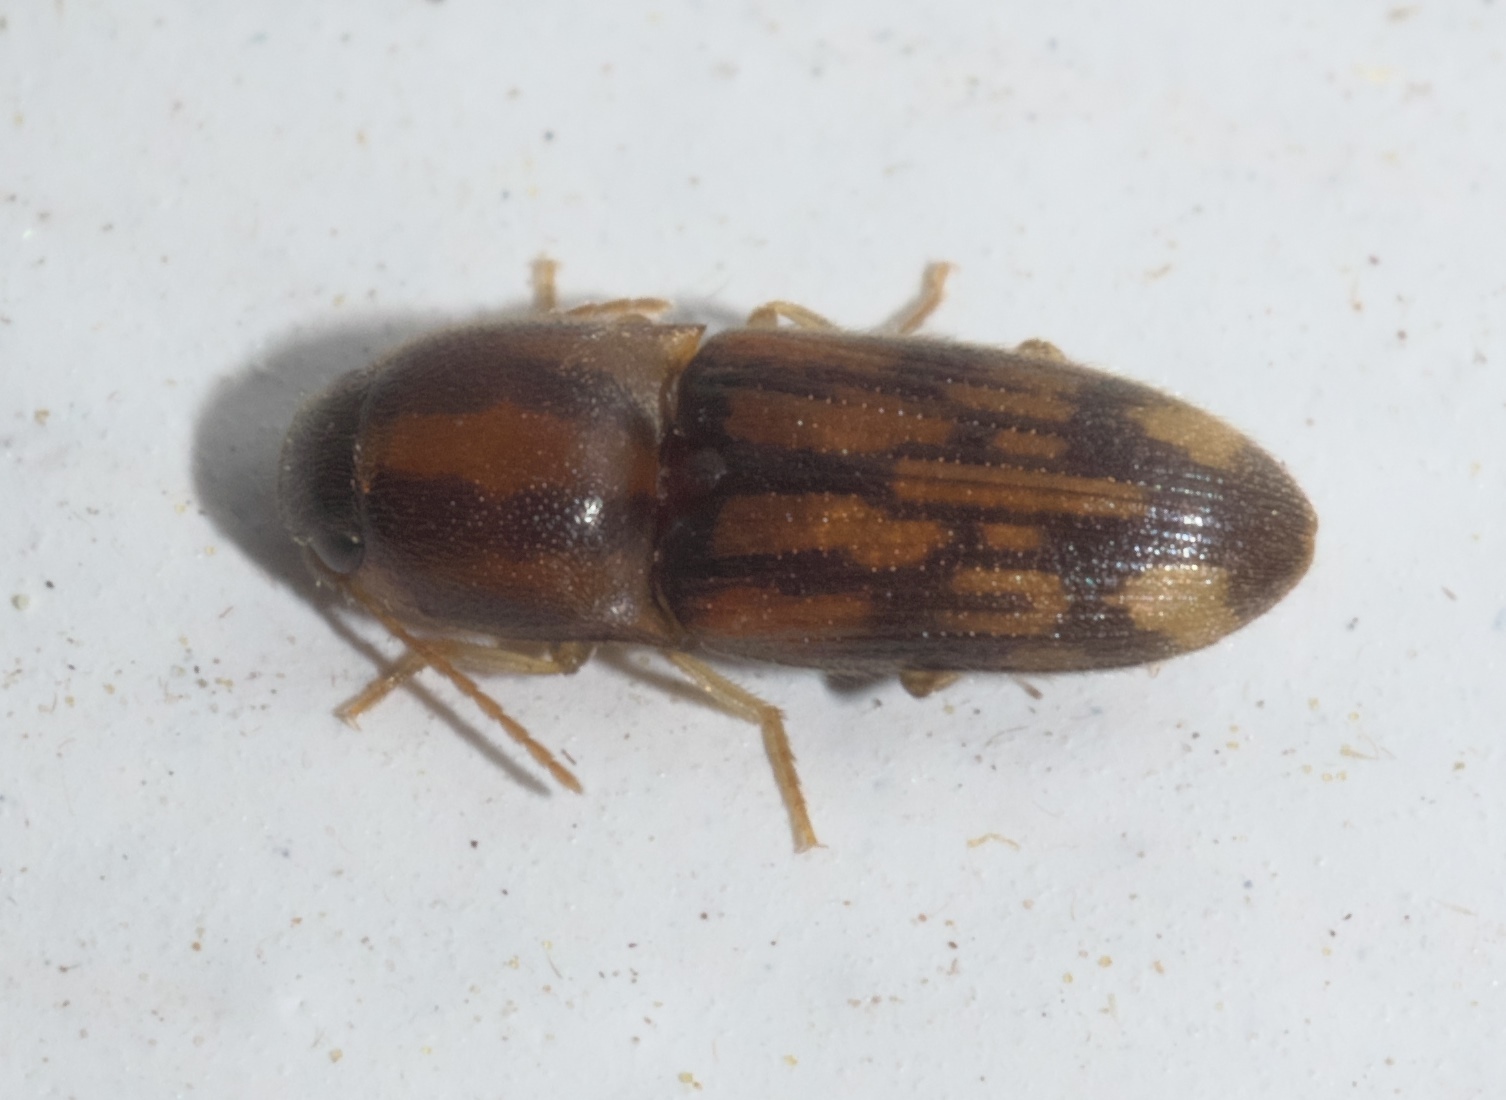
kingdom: Animalia
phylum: Arthropoda
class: Insecta
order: Coleoptera
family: Elateridae
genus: Monocrepidius
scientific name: Monocrepidius bellus
